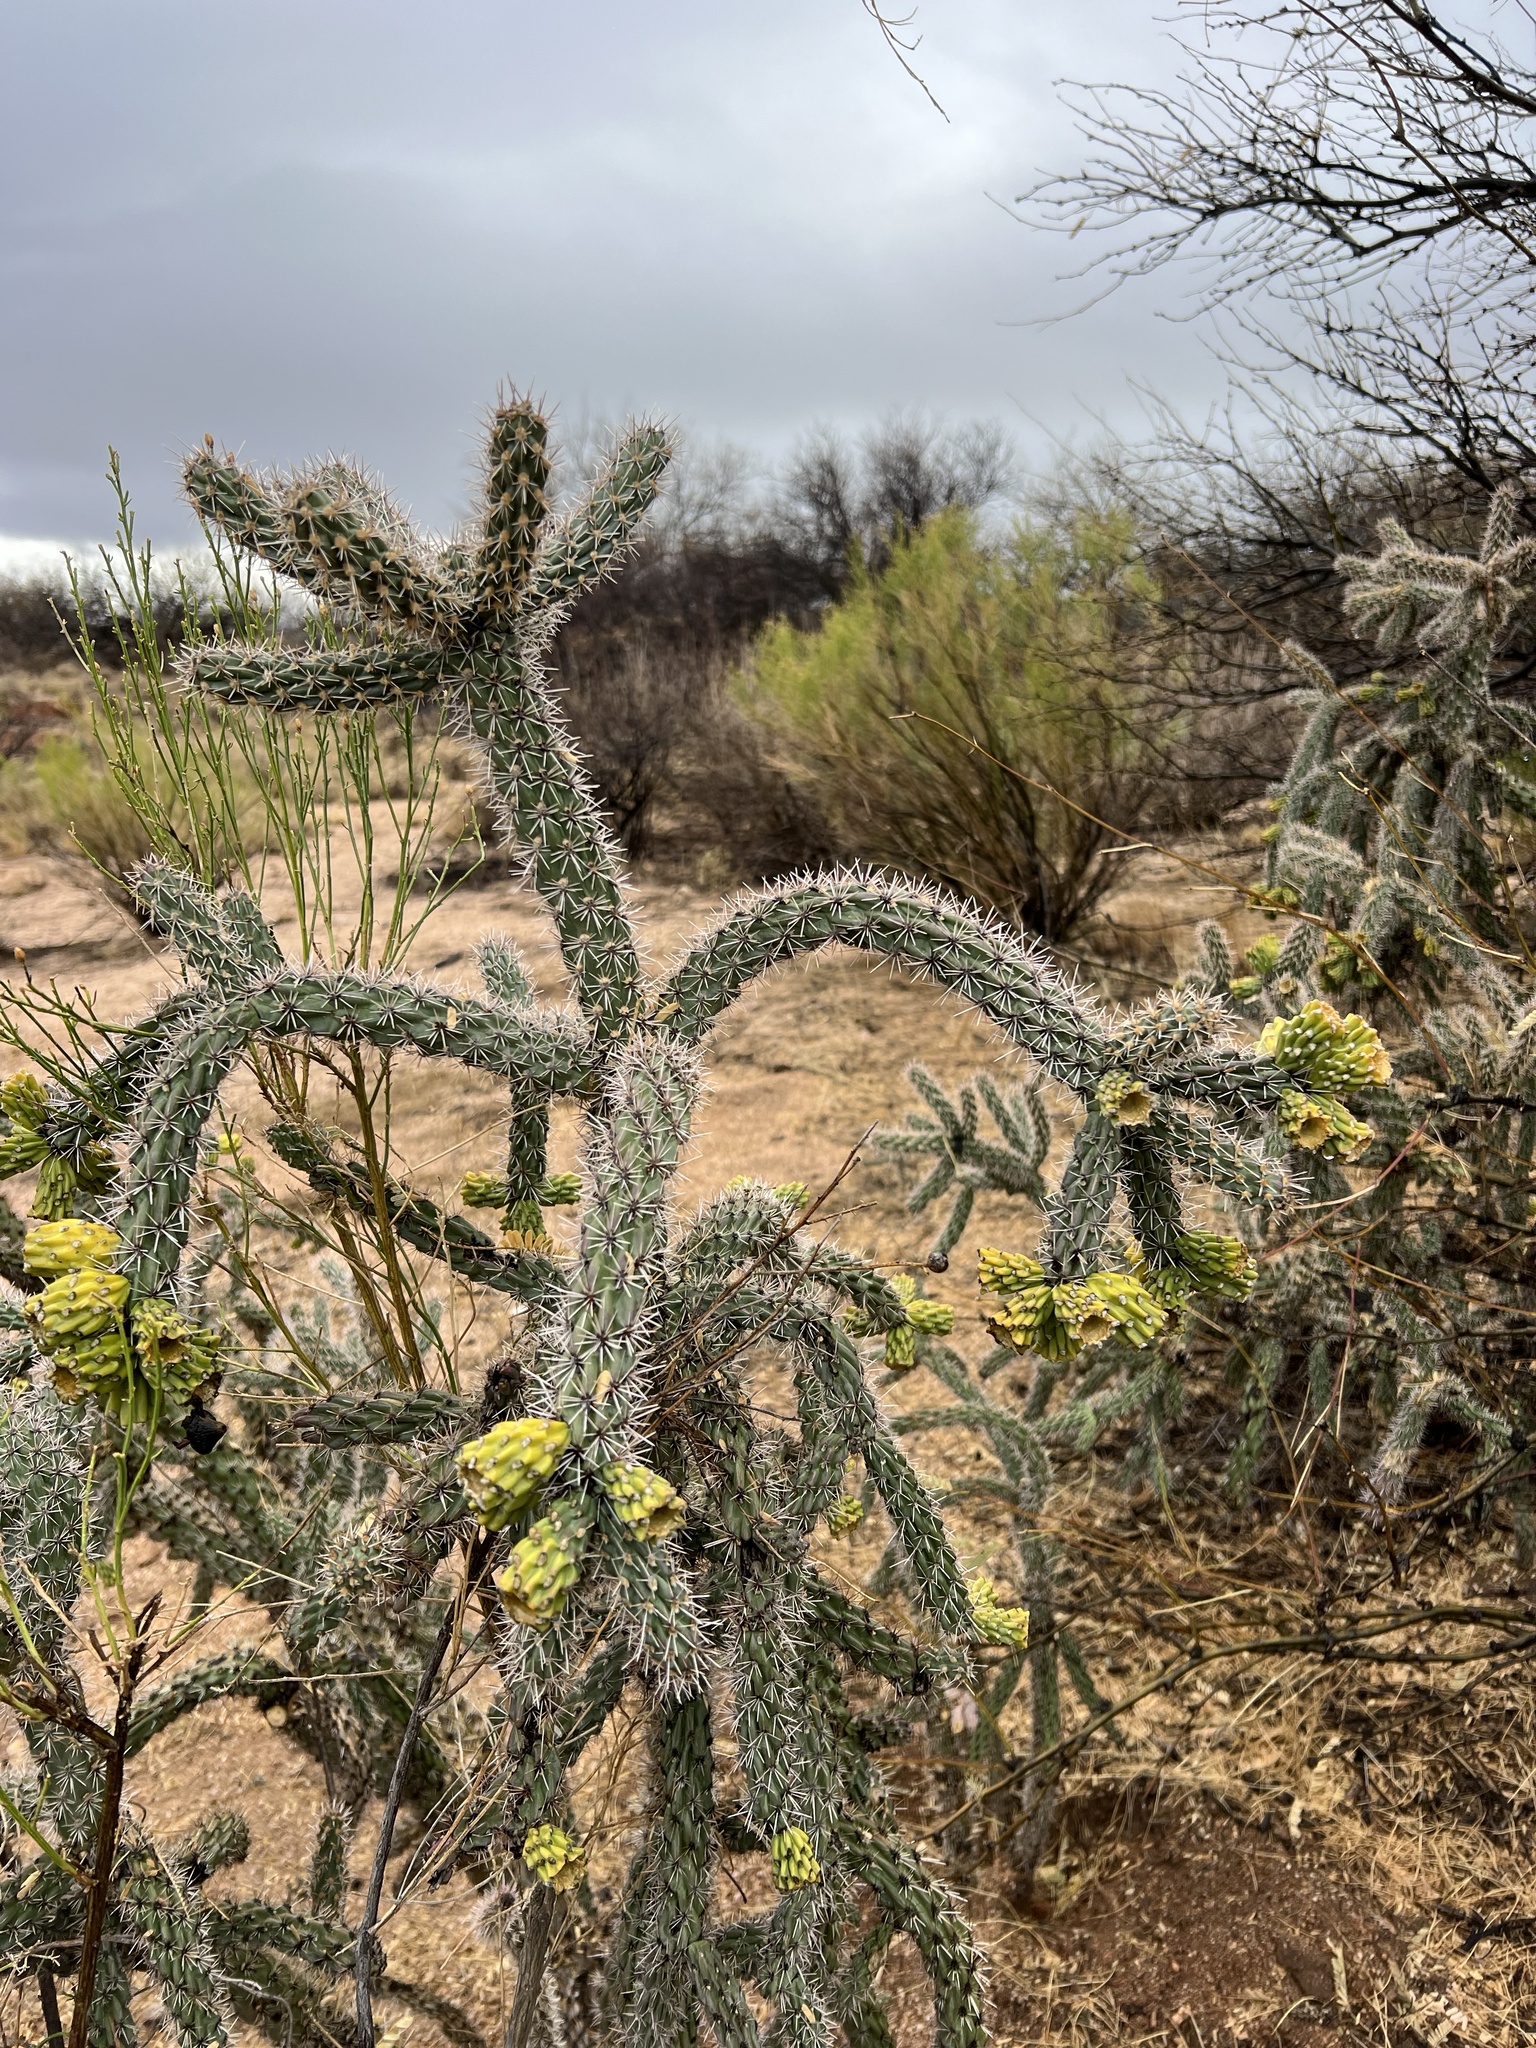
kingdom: Plantae
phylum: Tracheophyta
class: Magnoliopsida
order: Caryophyllales
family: Cactaceae
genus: Cylindropuntia
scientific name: Cylindropuntia imbricata
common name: Candelabrum cactus
